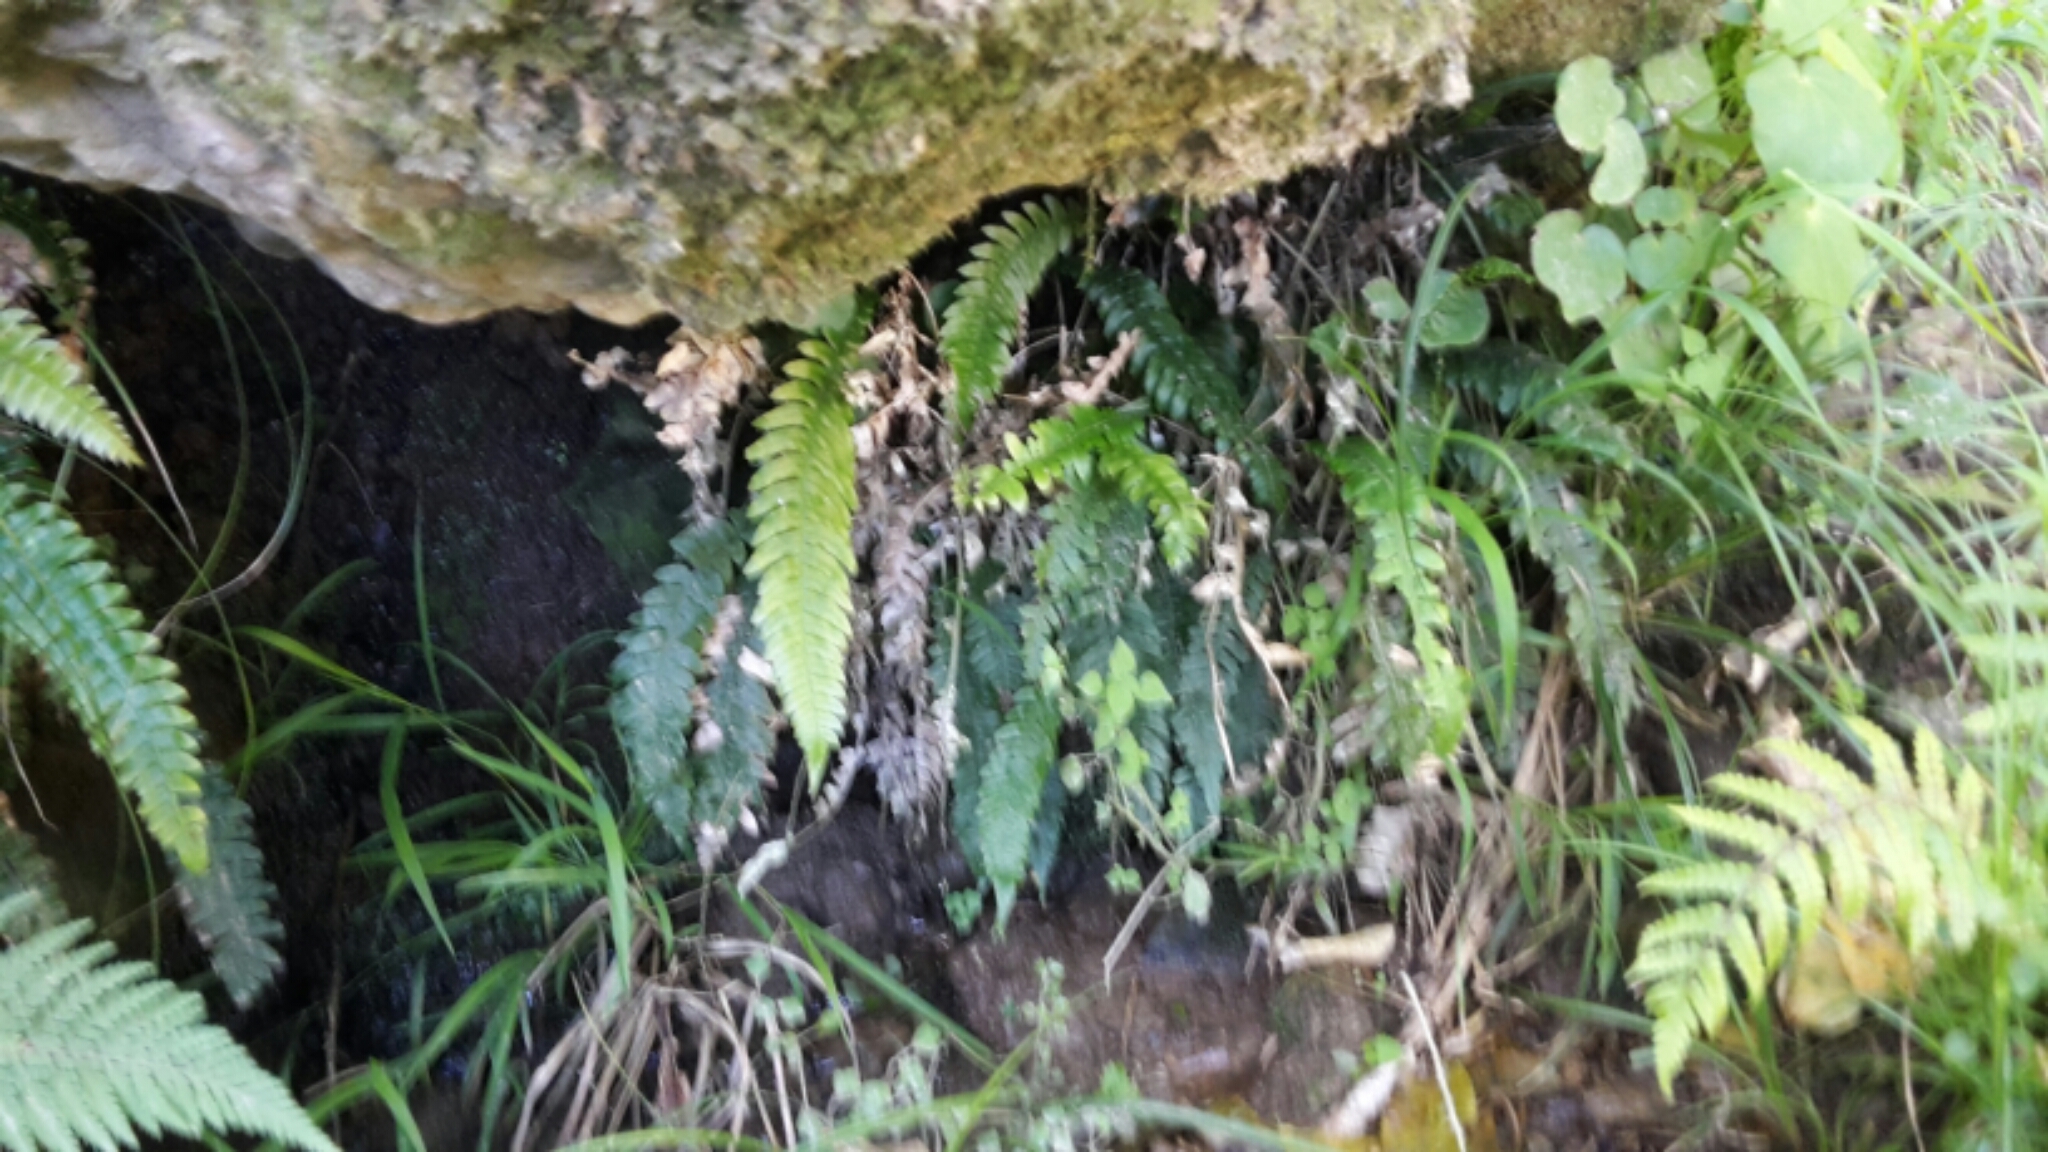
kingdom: Plantae
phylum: Tracheophyta
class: Polypodiopsida
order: Polypodiales
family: Blechnaceae
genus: Austroblechnum
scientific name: Austroblechnum lanceolatum
